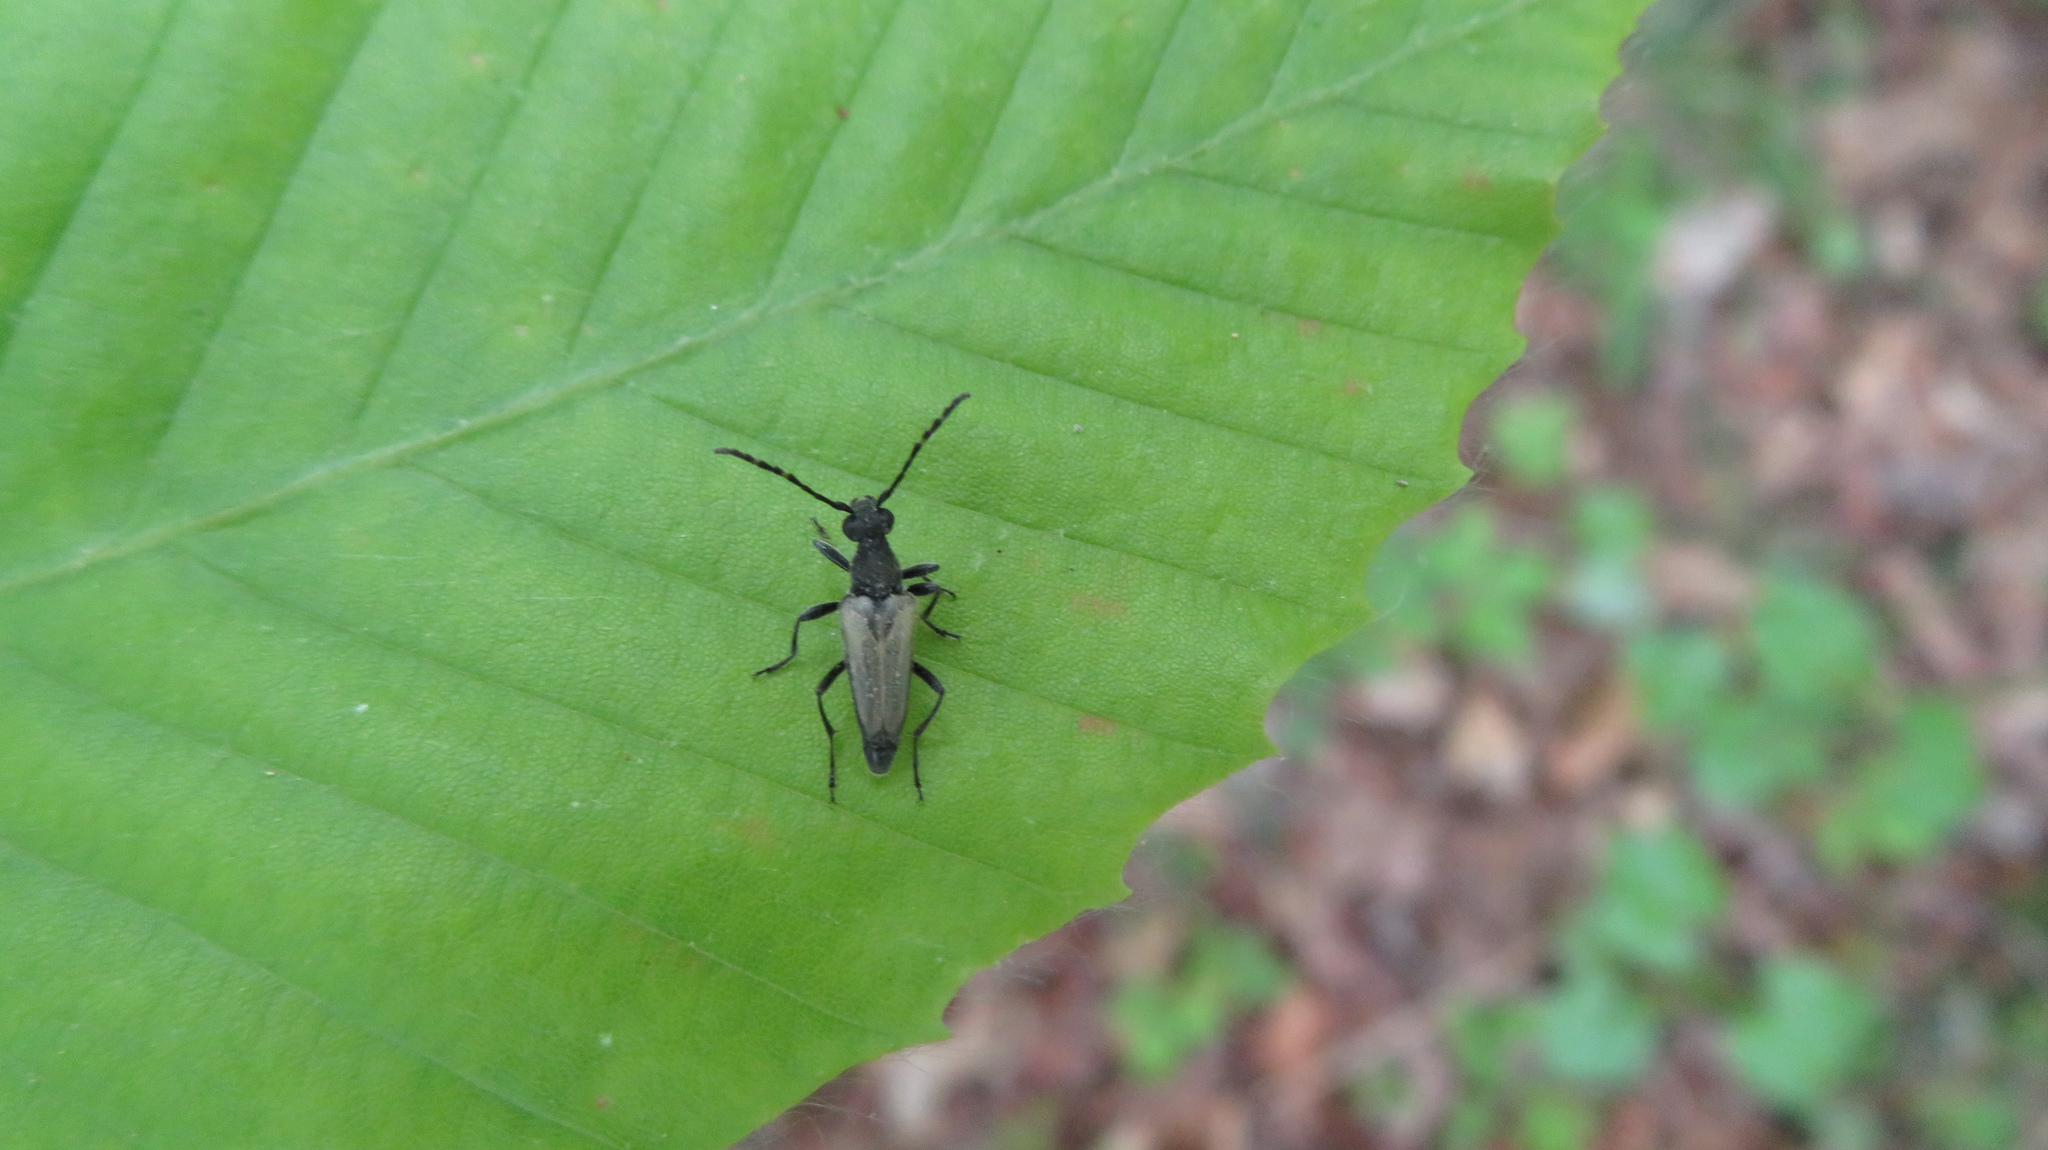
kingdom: Animalia
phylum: Arthropoda
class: Insecta
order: Coleoptera
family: Cerambycidae
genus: Brachyleptura
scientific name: Brachyleptura circumdata
